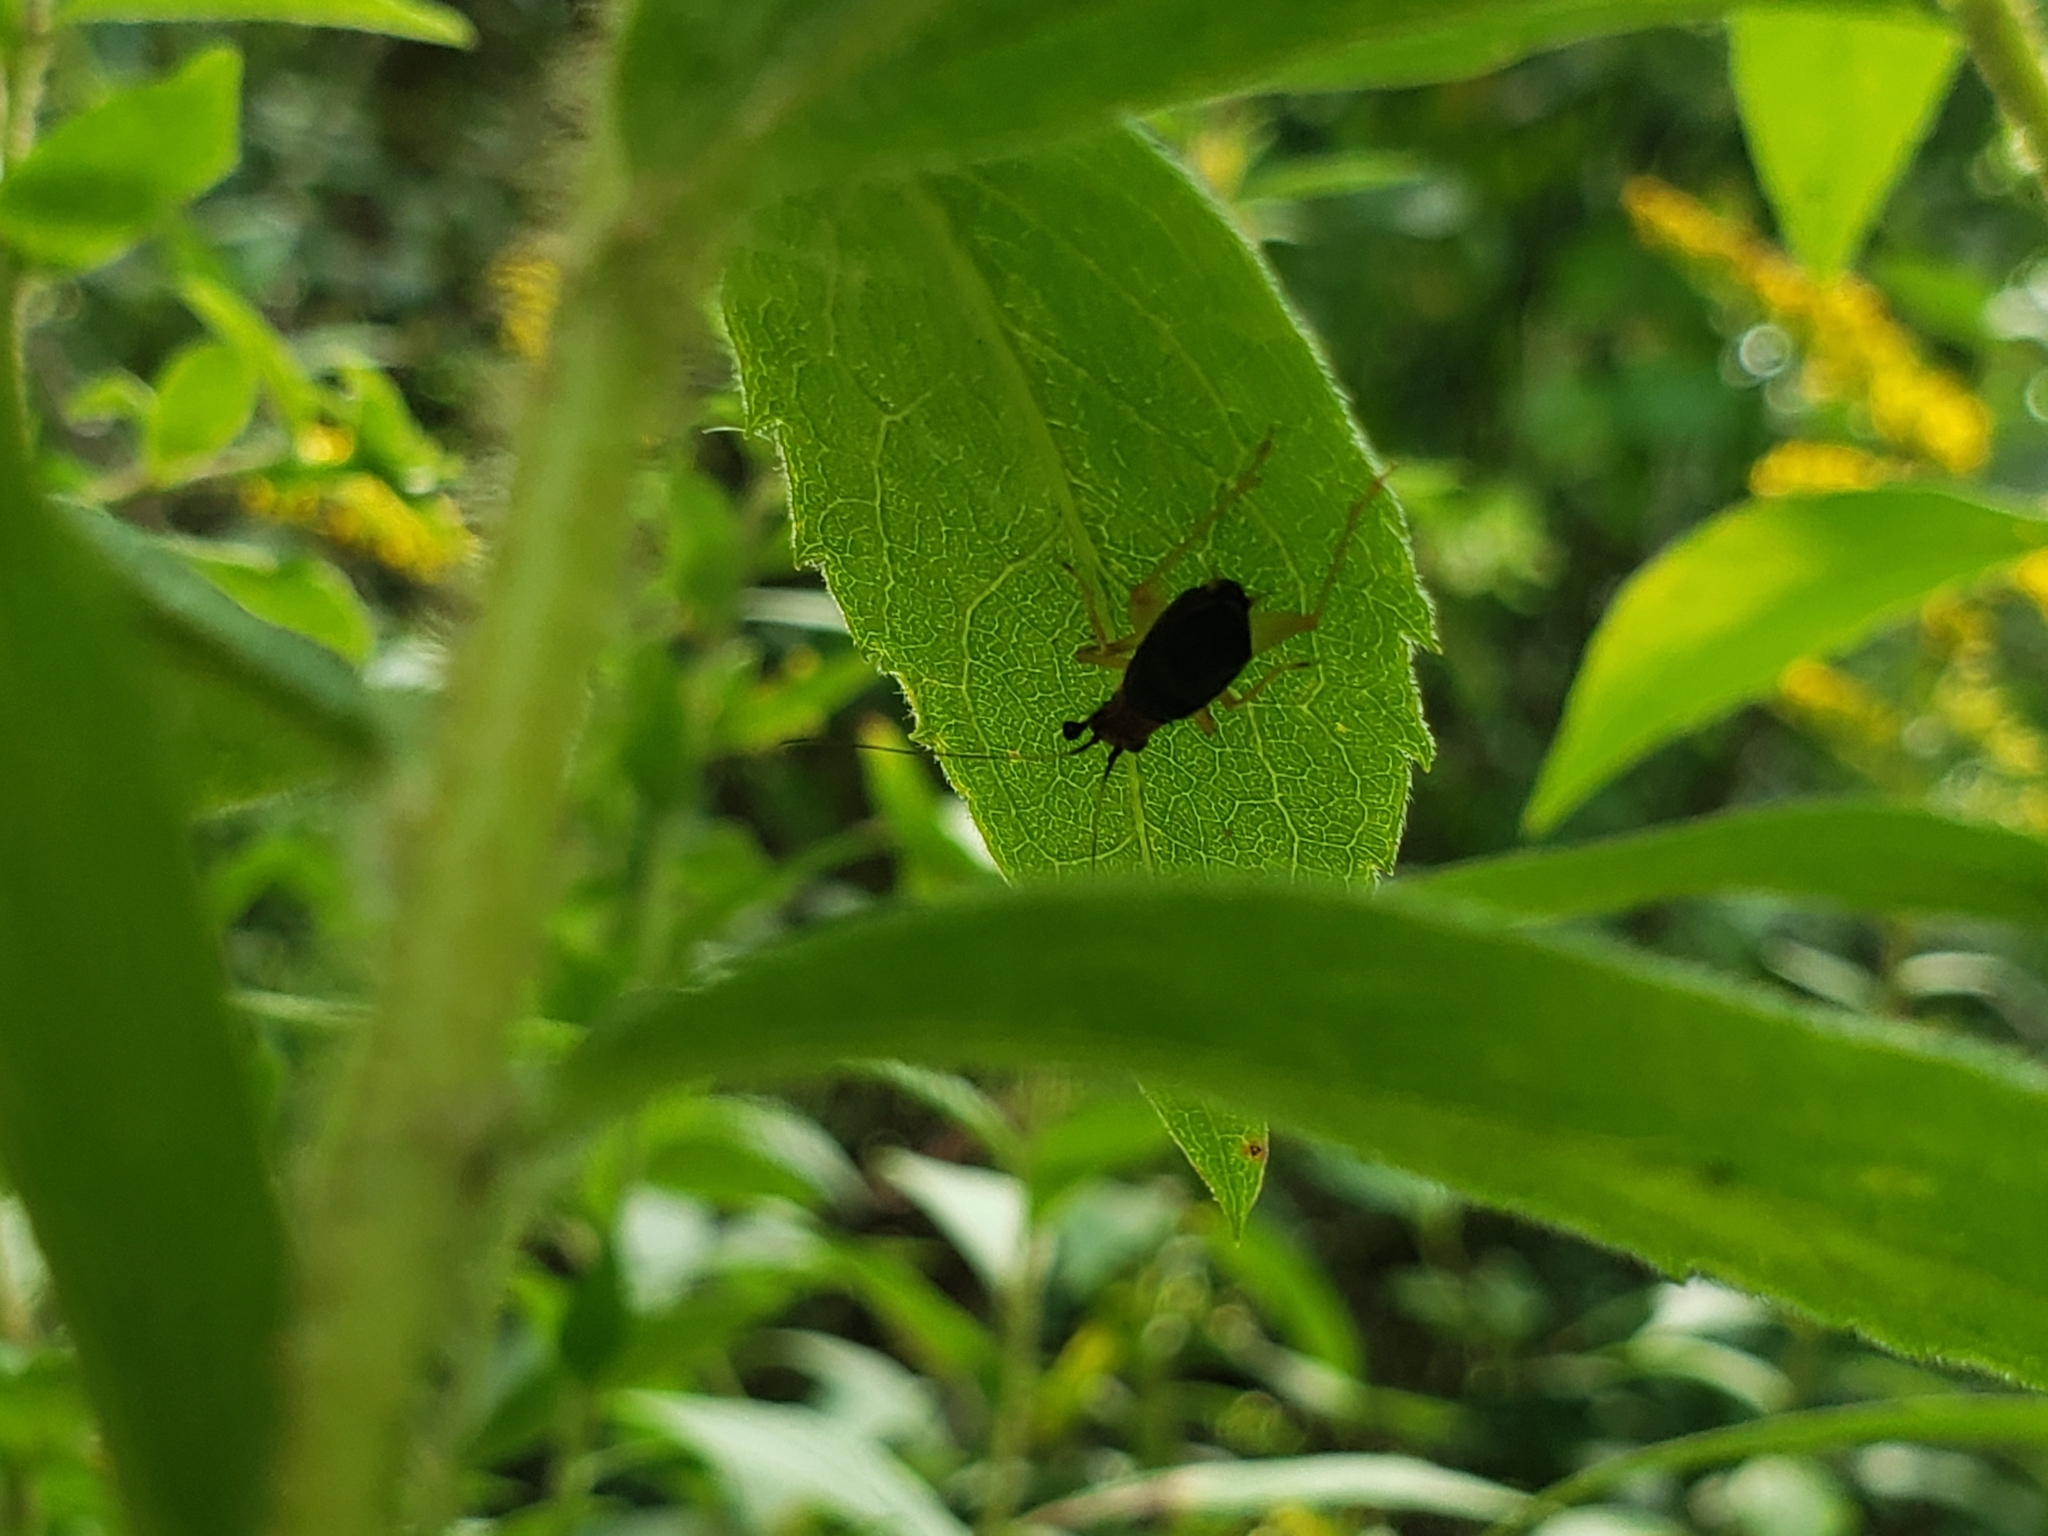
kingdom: Animalia
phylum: Arthropoda
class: Insecta
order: Orthoptera
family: Trigonidiidae
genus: Phyllopalpus
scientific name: Phyllopalpus pulchellus
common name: Handsome trig
